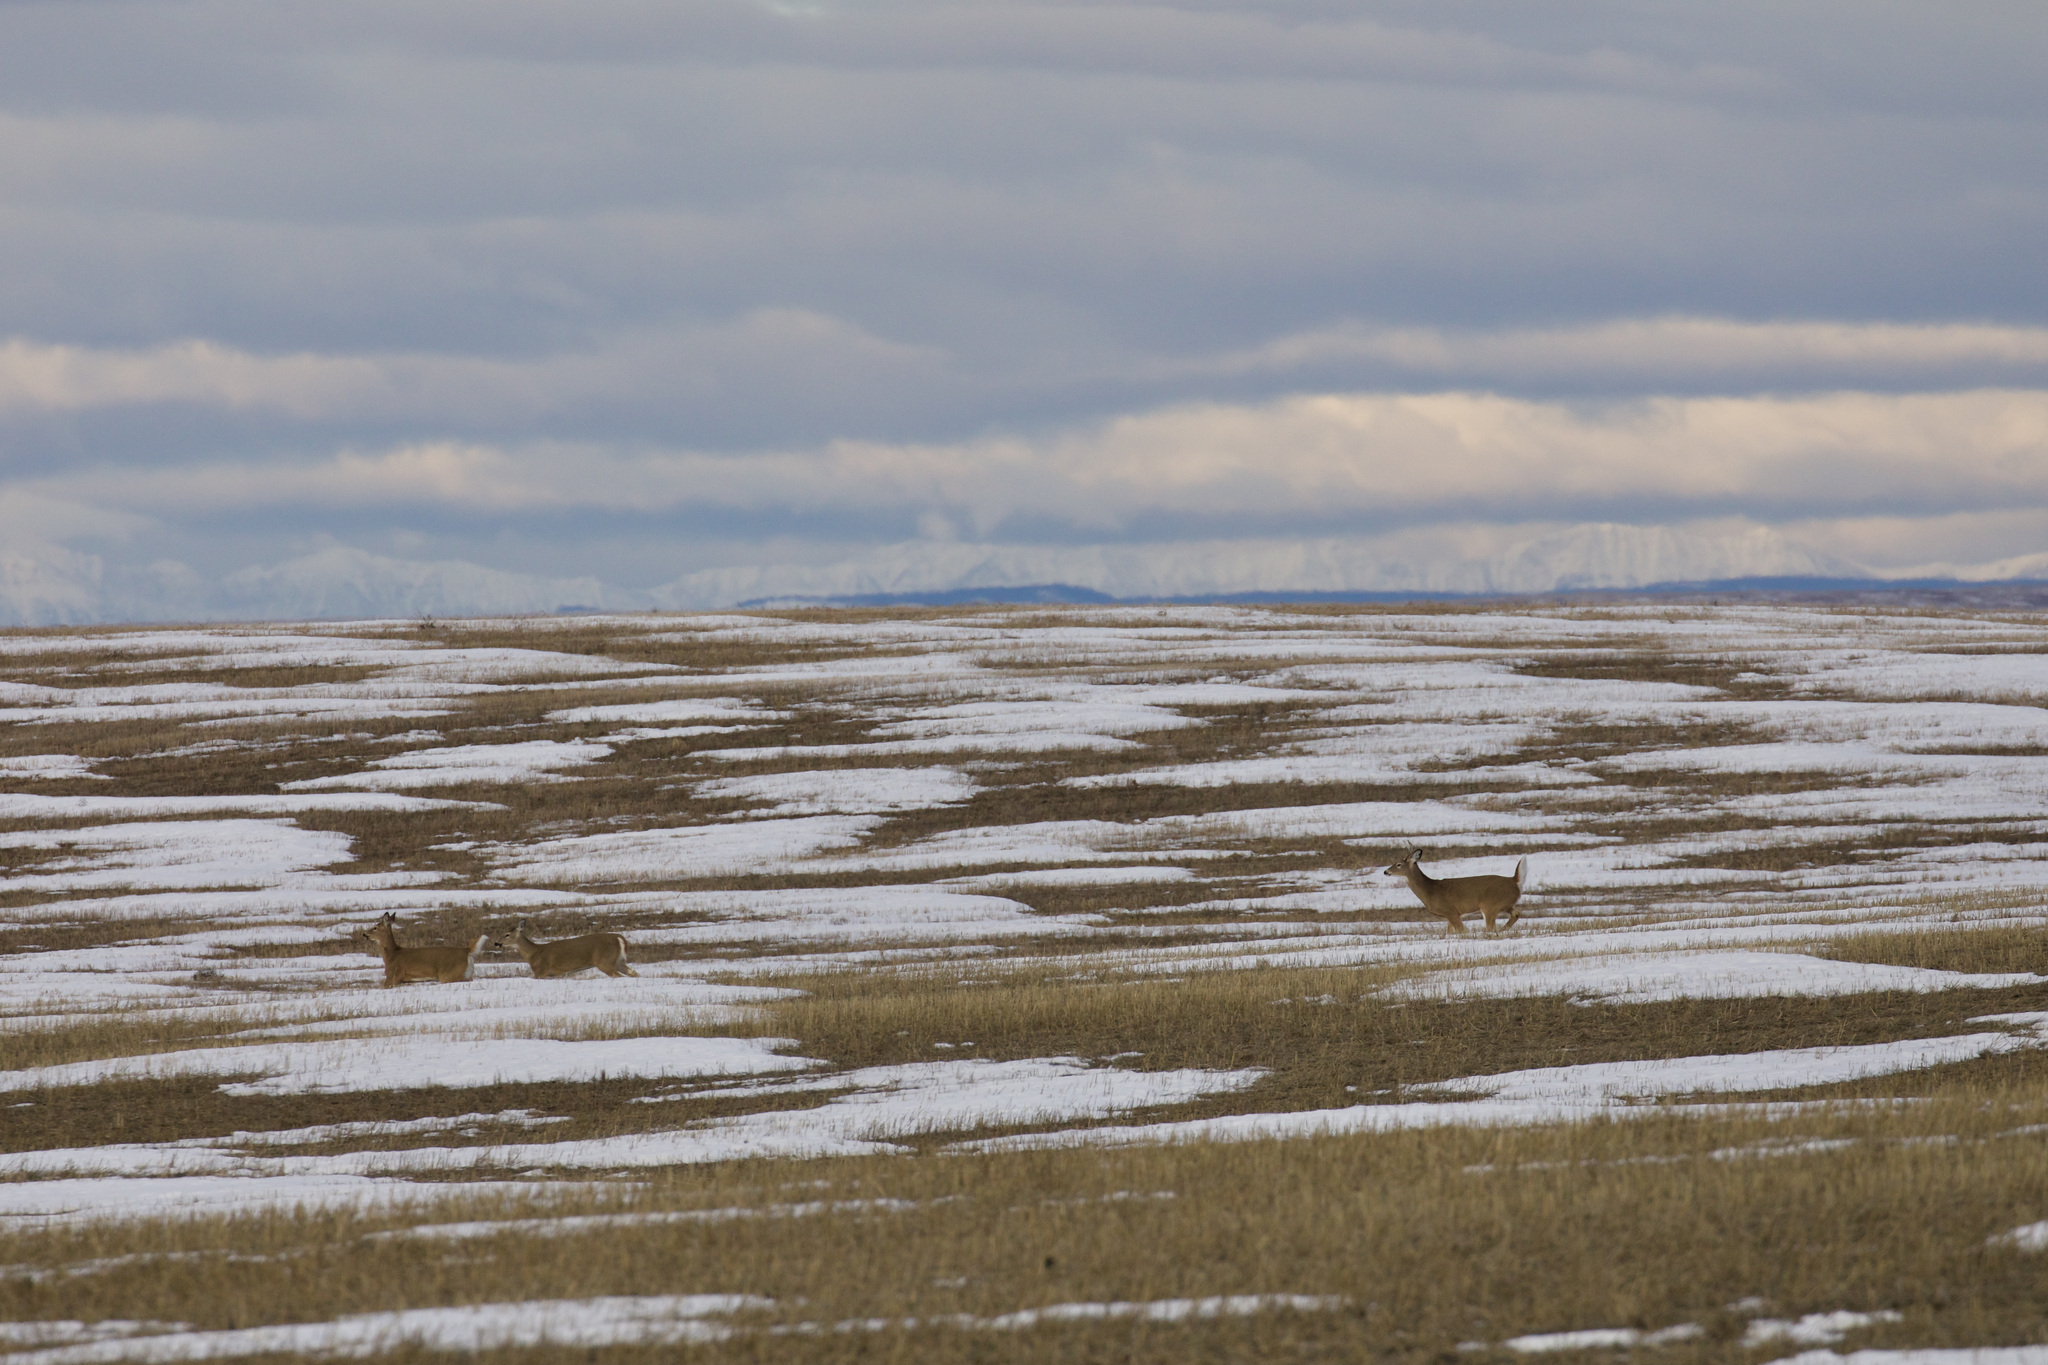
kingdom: Animalia
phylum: Chordata
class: Mammalia
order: Artiodactyla
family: Cervidae
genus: Odocoileus
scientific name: Odocoileus virginianus
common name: White-tailed deer
